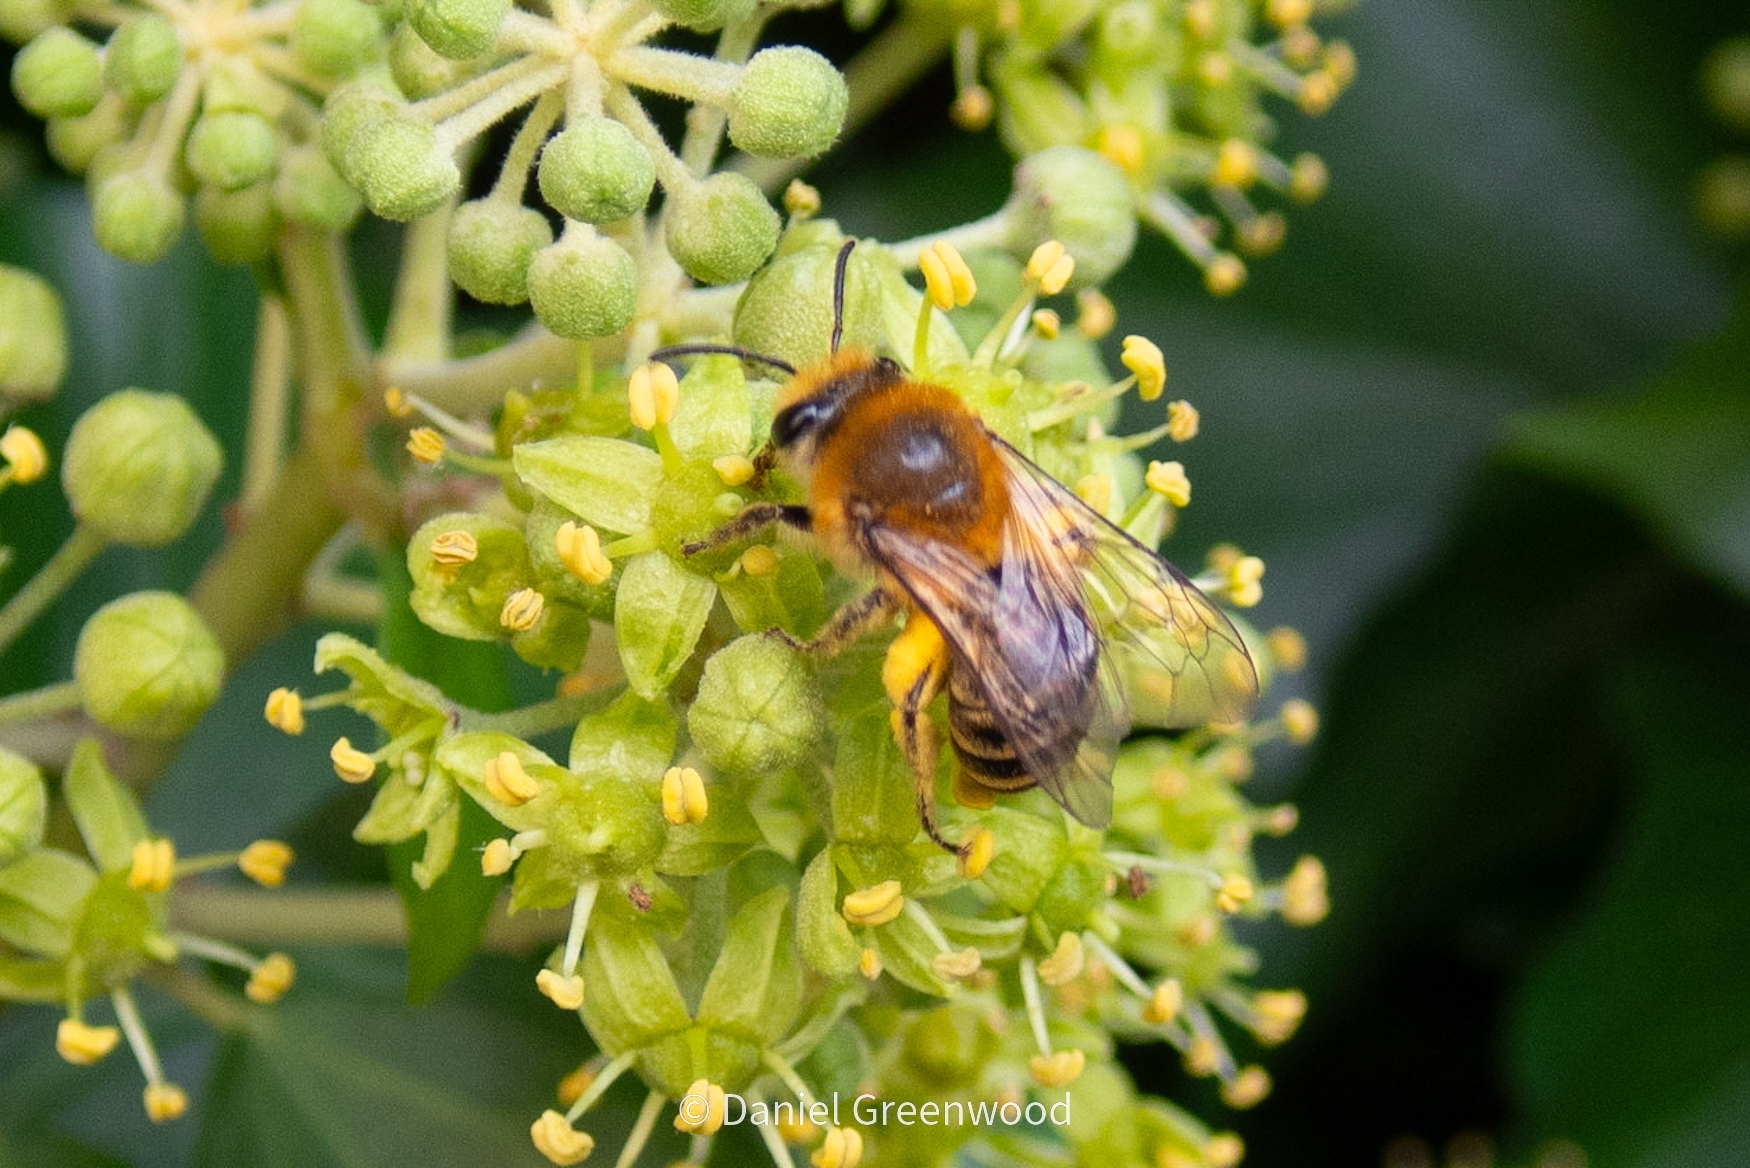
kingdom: Animalia
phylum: Arthropoda
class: Insecta
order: Hymenoptera
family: Colletidae
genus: Colletes
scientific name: Colletes hederae
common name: Ivy bee
